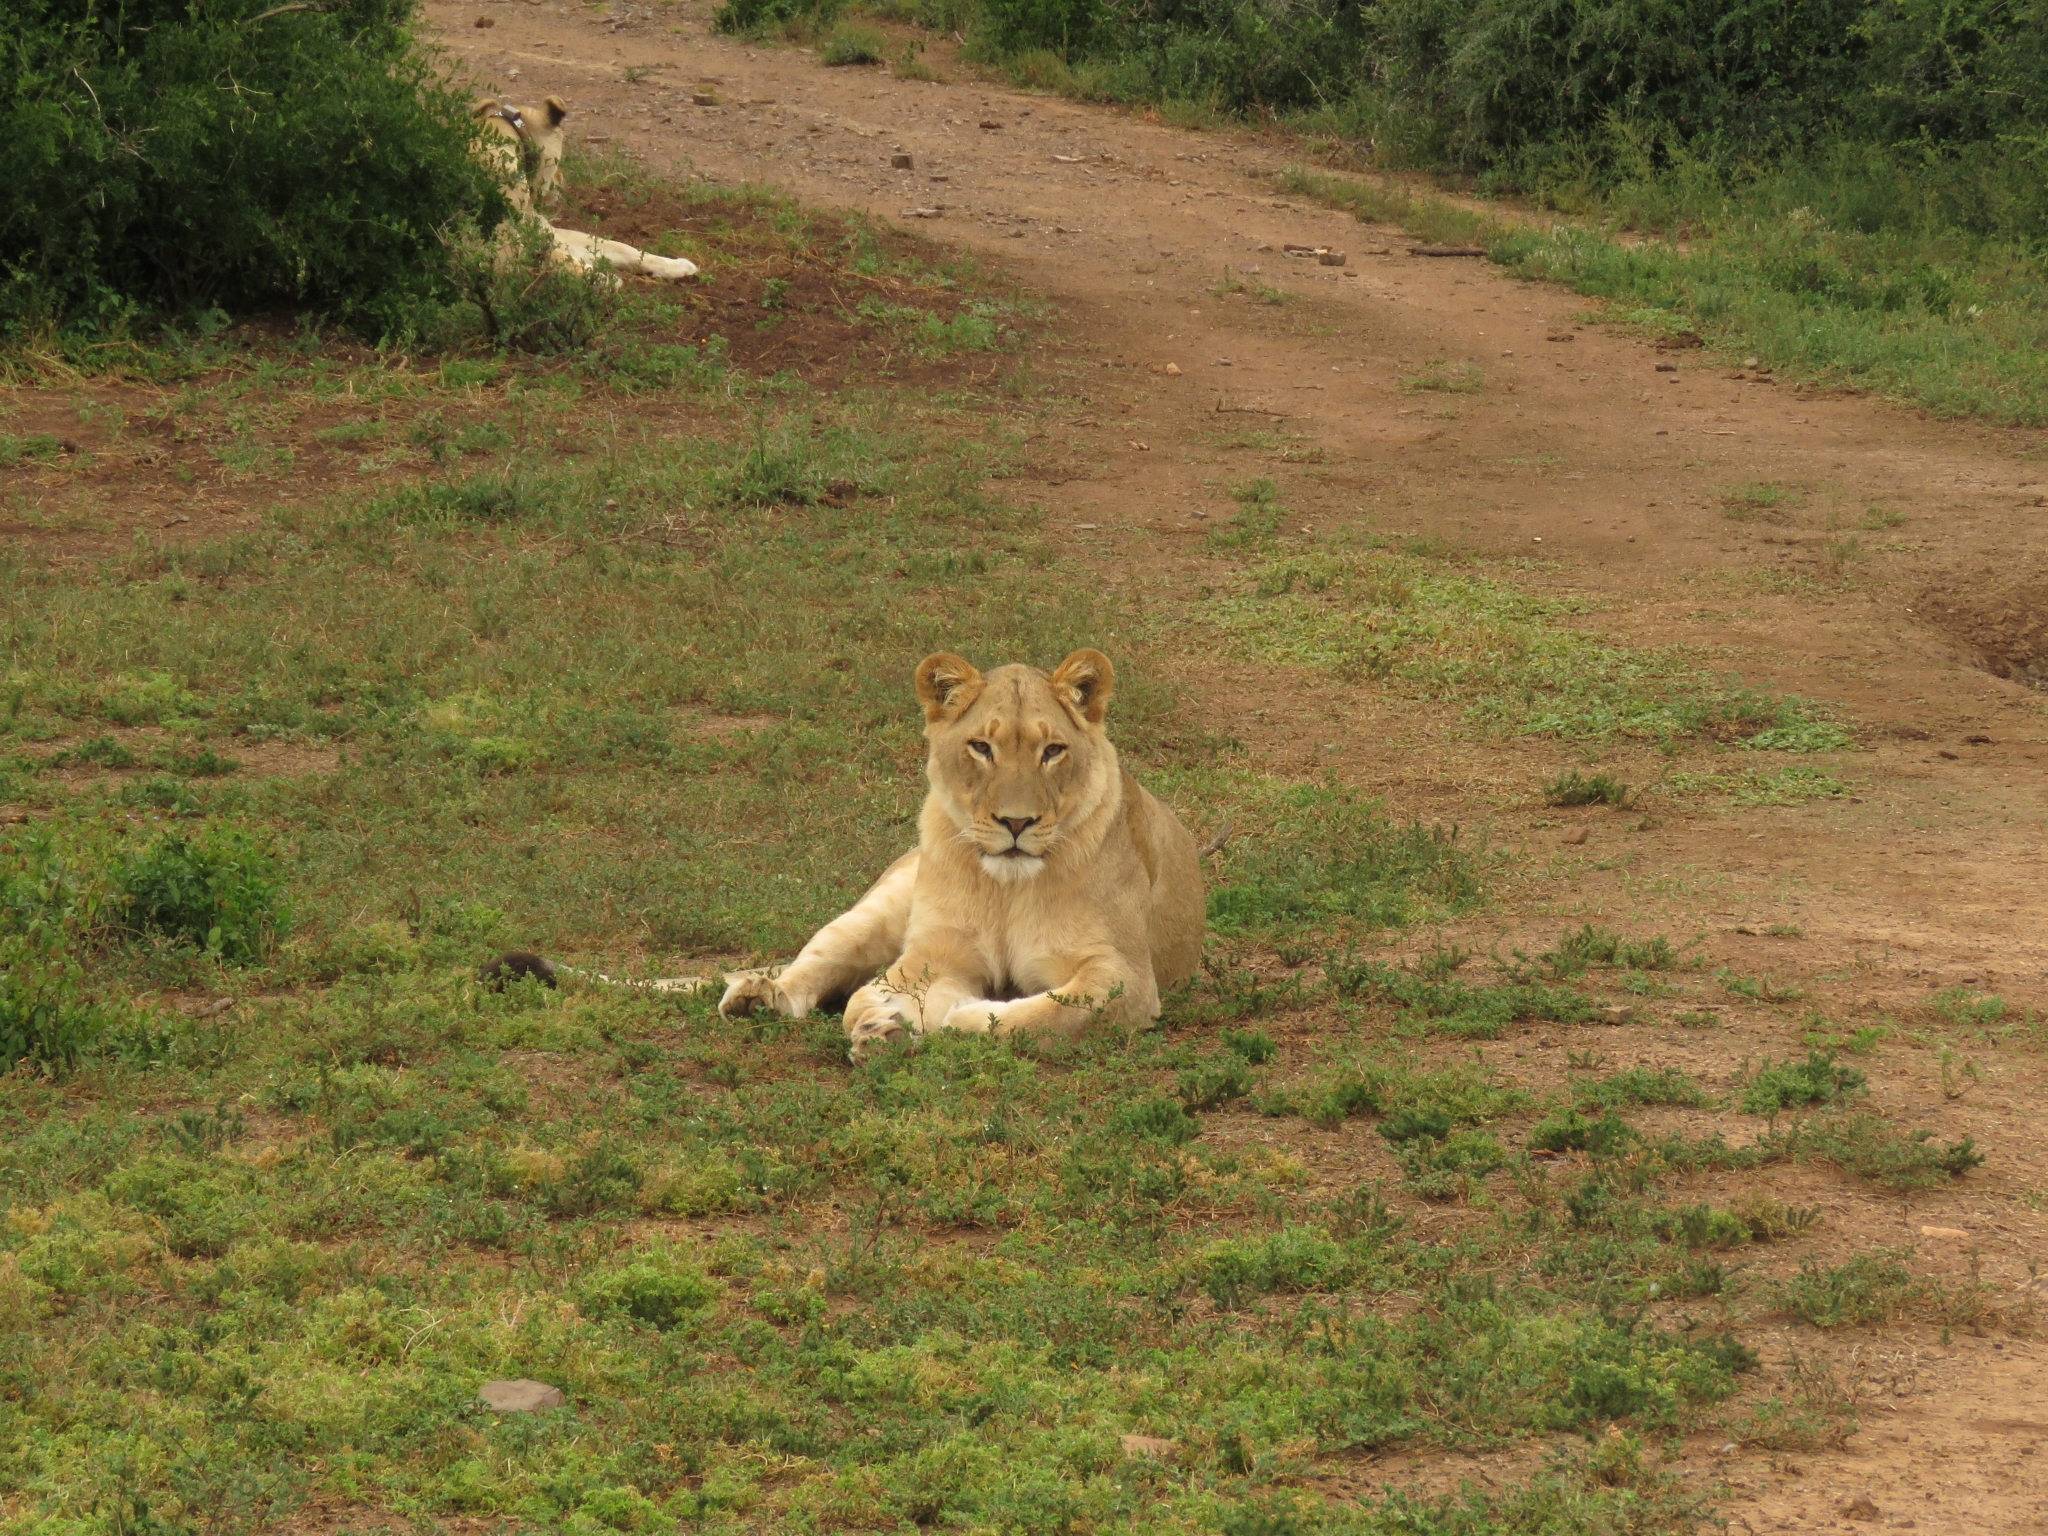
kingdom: Animalia
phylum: Chordata
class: Mammalia
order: Carnivora
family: Felidae
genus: Panthera
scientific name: Panthera leo
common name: Lion
